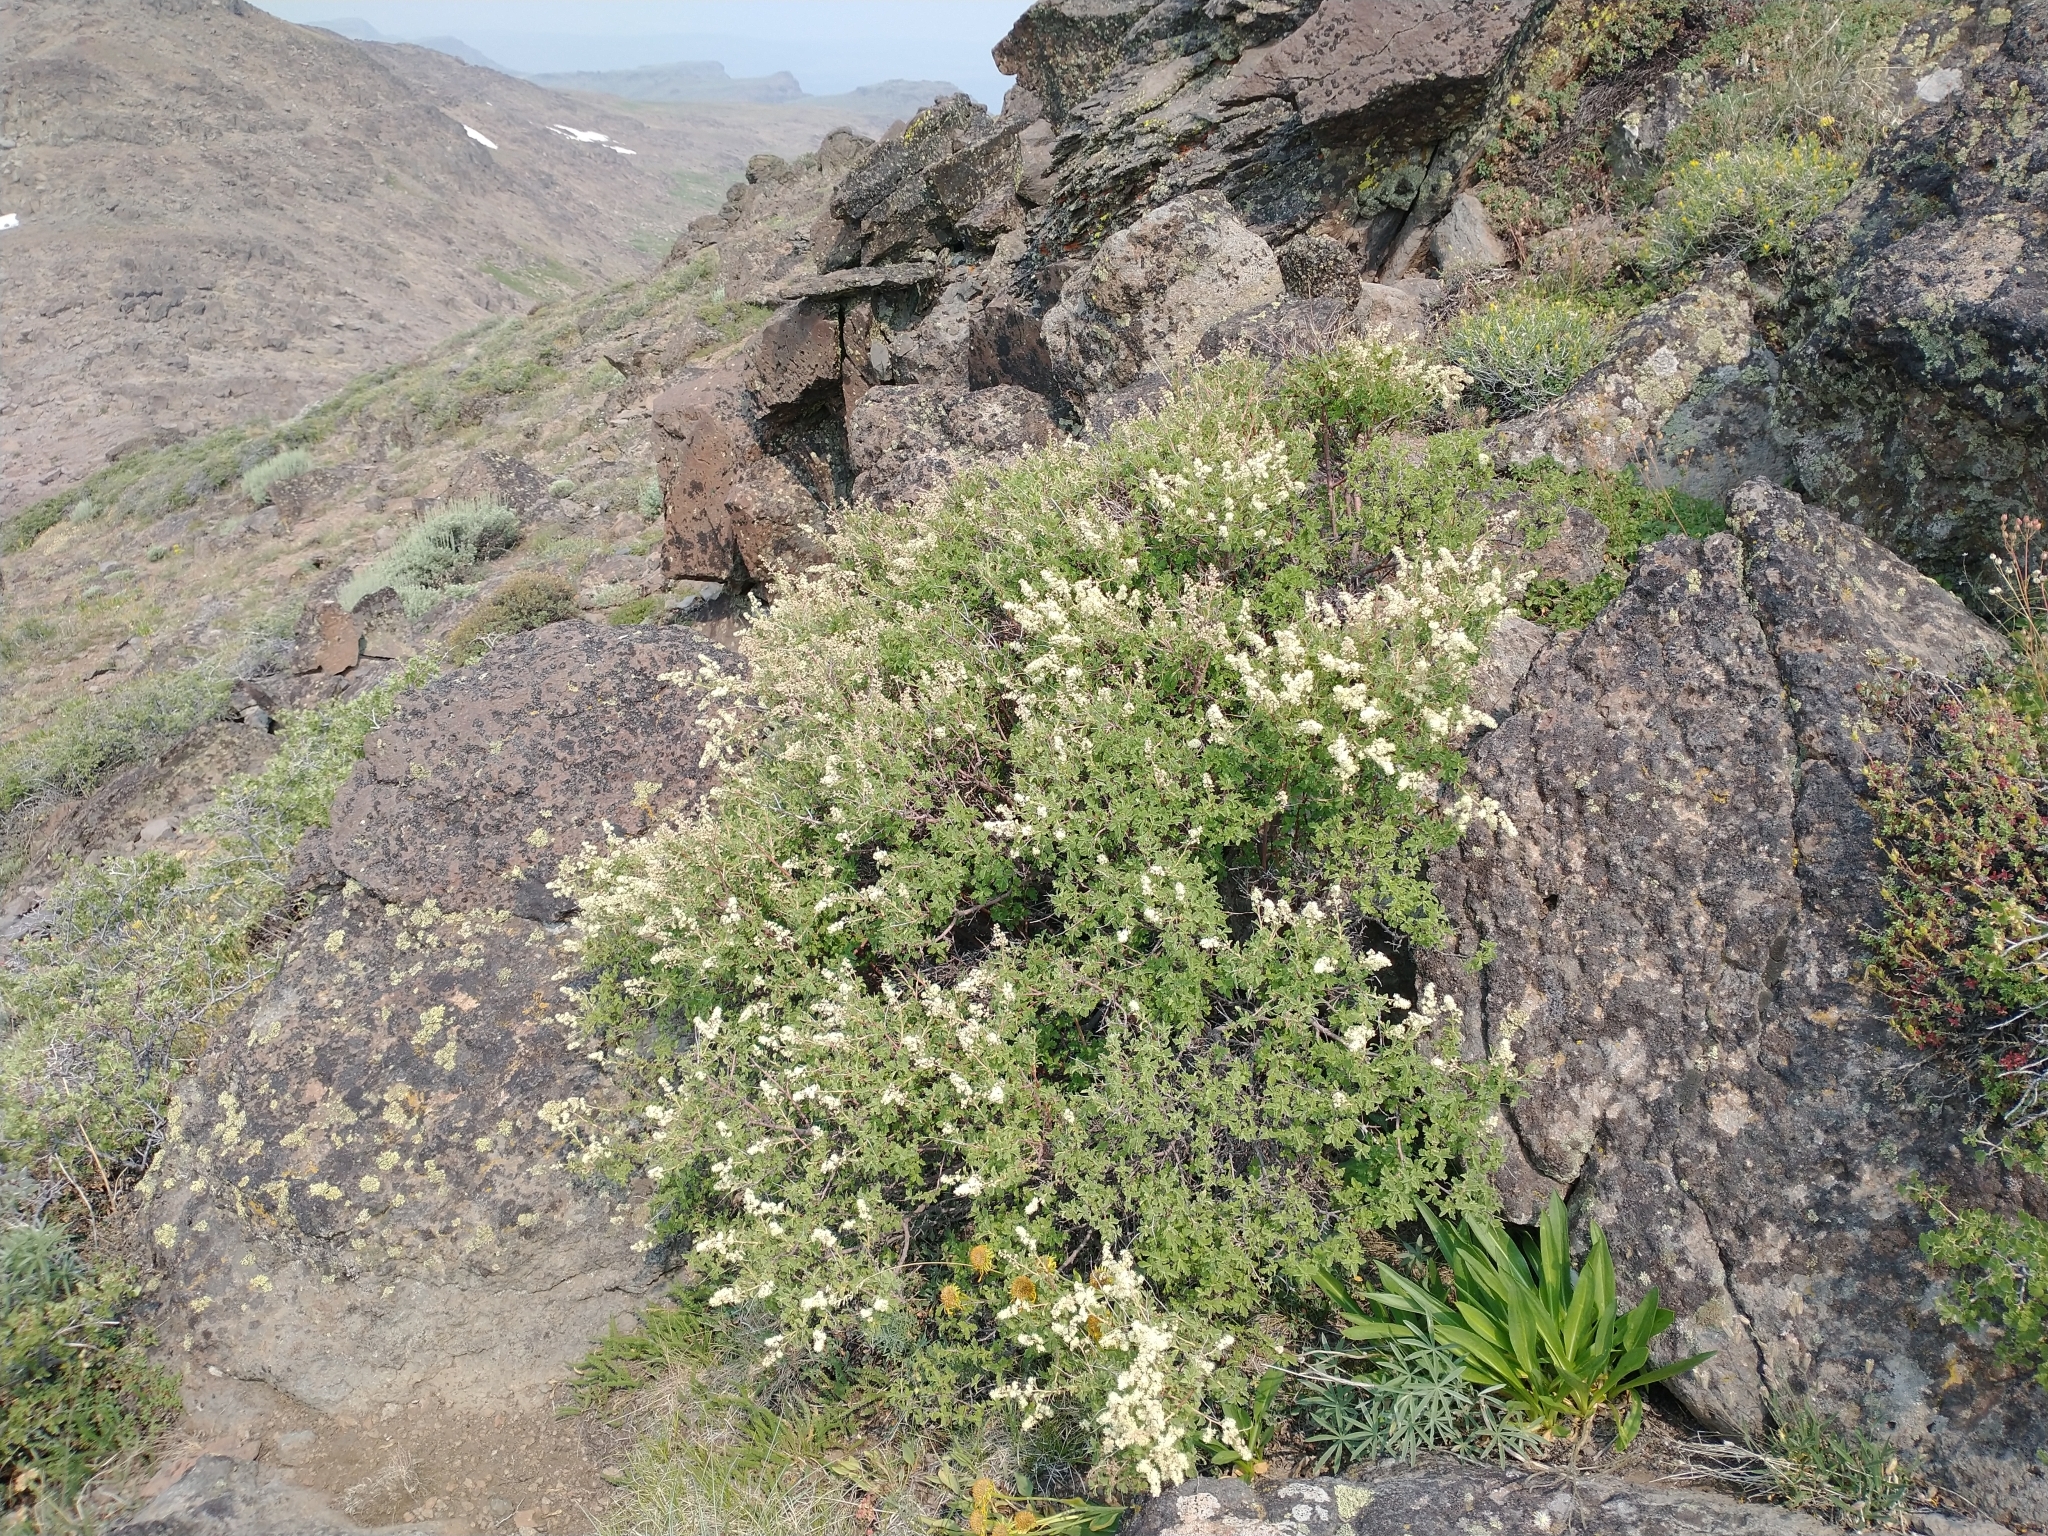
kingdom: Plantae
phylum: Tracheophyta
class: Magnoliopsida
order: Rosales
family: Rosaceae
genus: Holodiscus
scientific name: Holodiscus discolor
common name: Oceanspray
